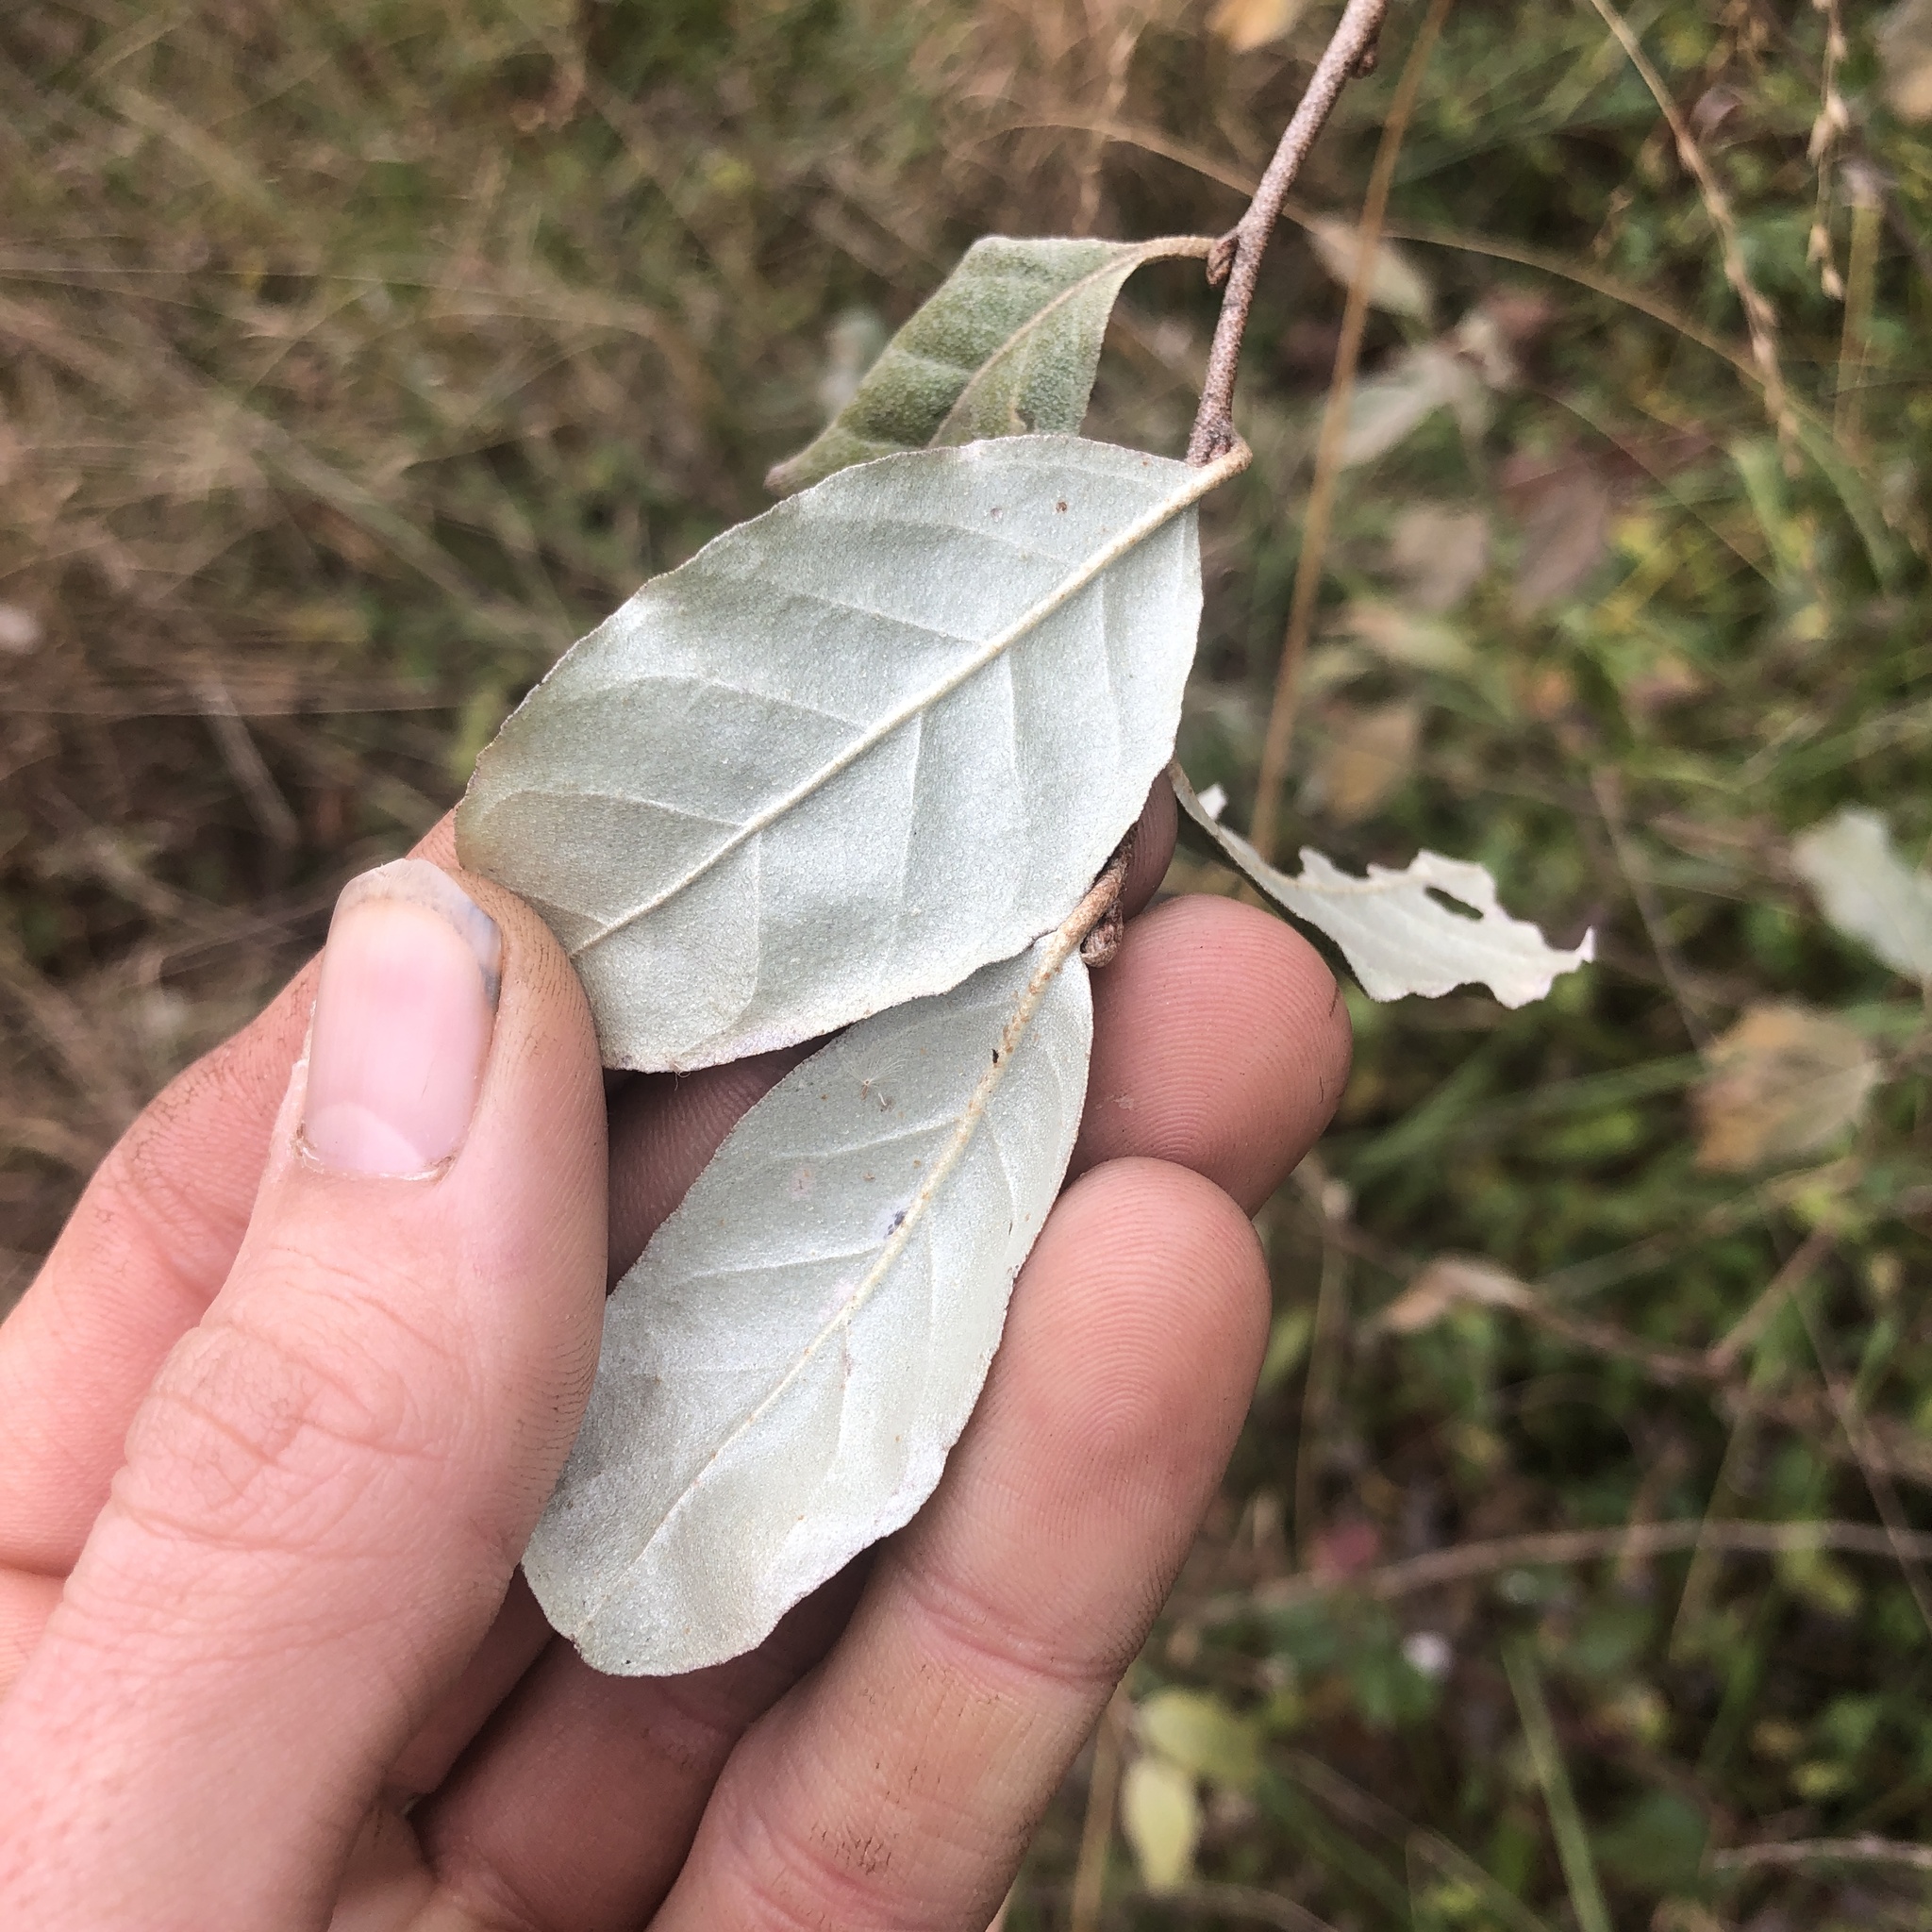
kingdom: Plantae
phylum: Tracheophyta
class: Magnoliopsida
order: Rosales
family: Elaeagnaceae
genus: Elaeagnus
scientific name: Elaeagnus umbellata
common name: Autumn olive
